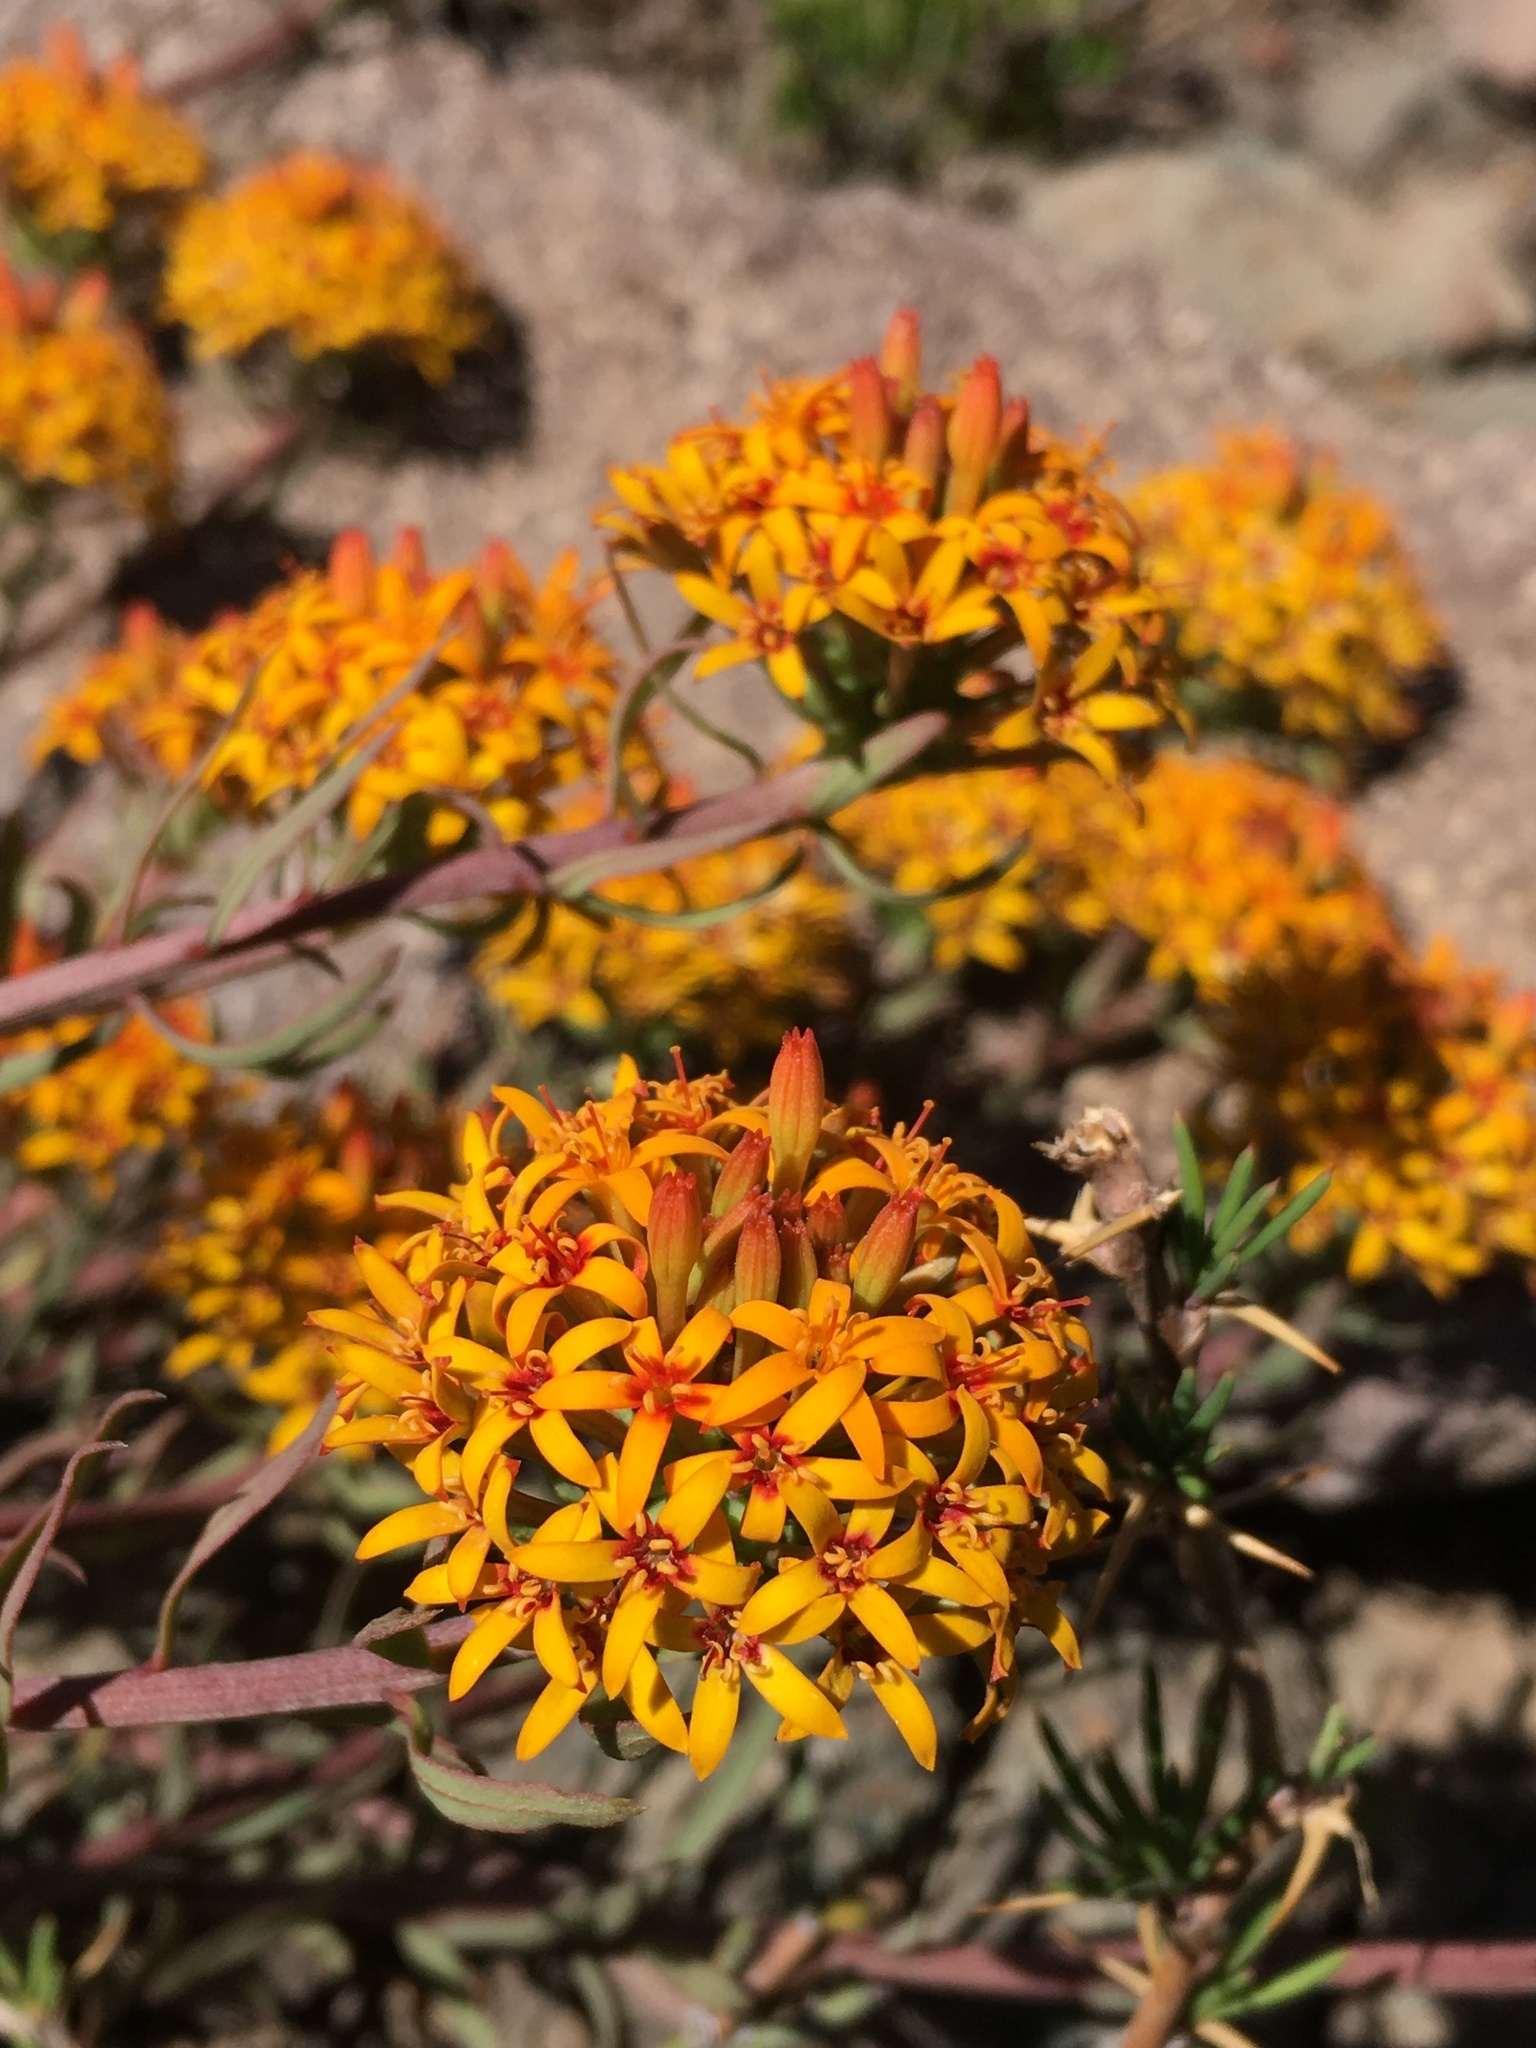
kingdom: Plantae
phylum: Tracheophyta
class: Magnoliopsida
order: Santalales
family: Schoepfiaceae
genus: Quinchamalium
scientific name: Quinchamalium chilense
